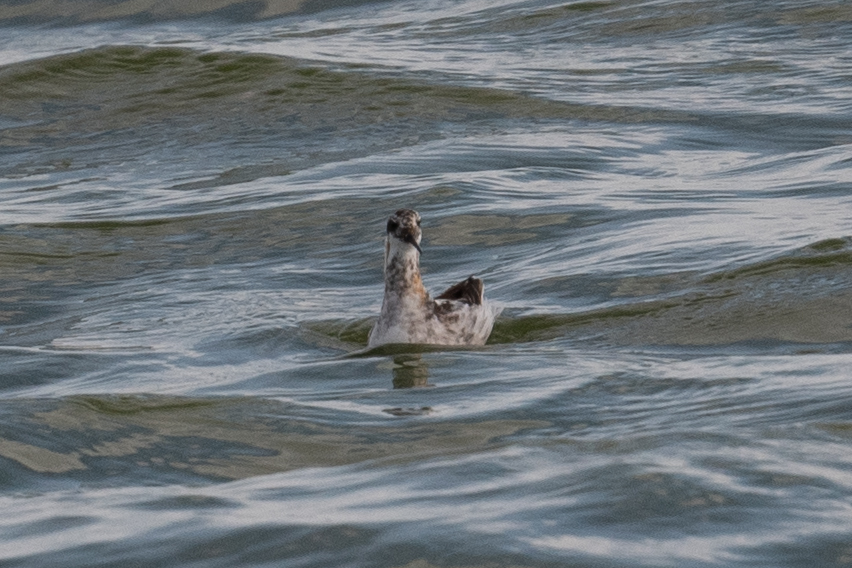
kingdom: Animalia
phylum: Chordata
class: Aves
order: Charadriiformes
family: Scolopacidae
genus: Phalaropus
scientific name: Phalaropus lobatus
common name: Red-necked phalarope
